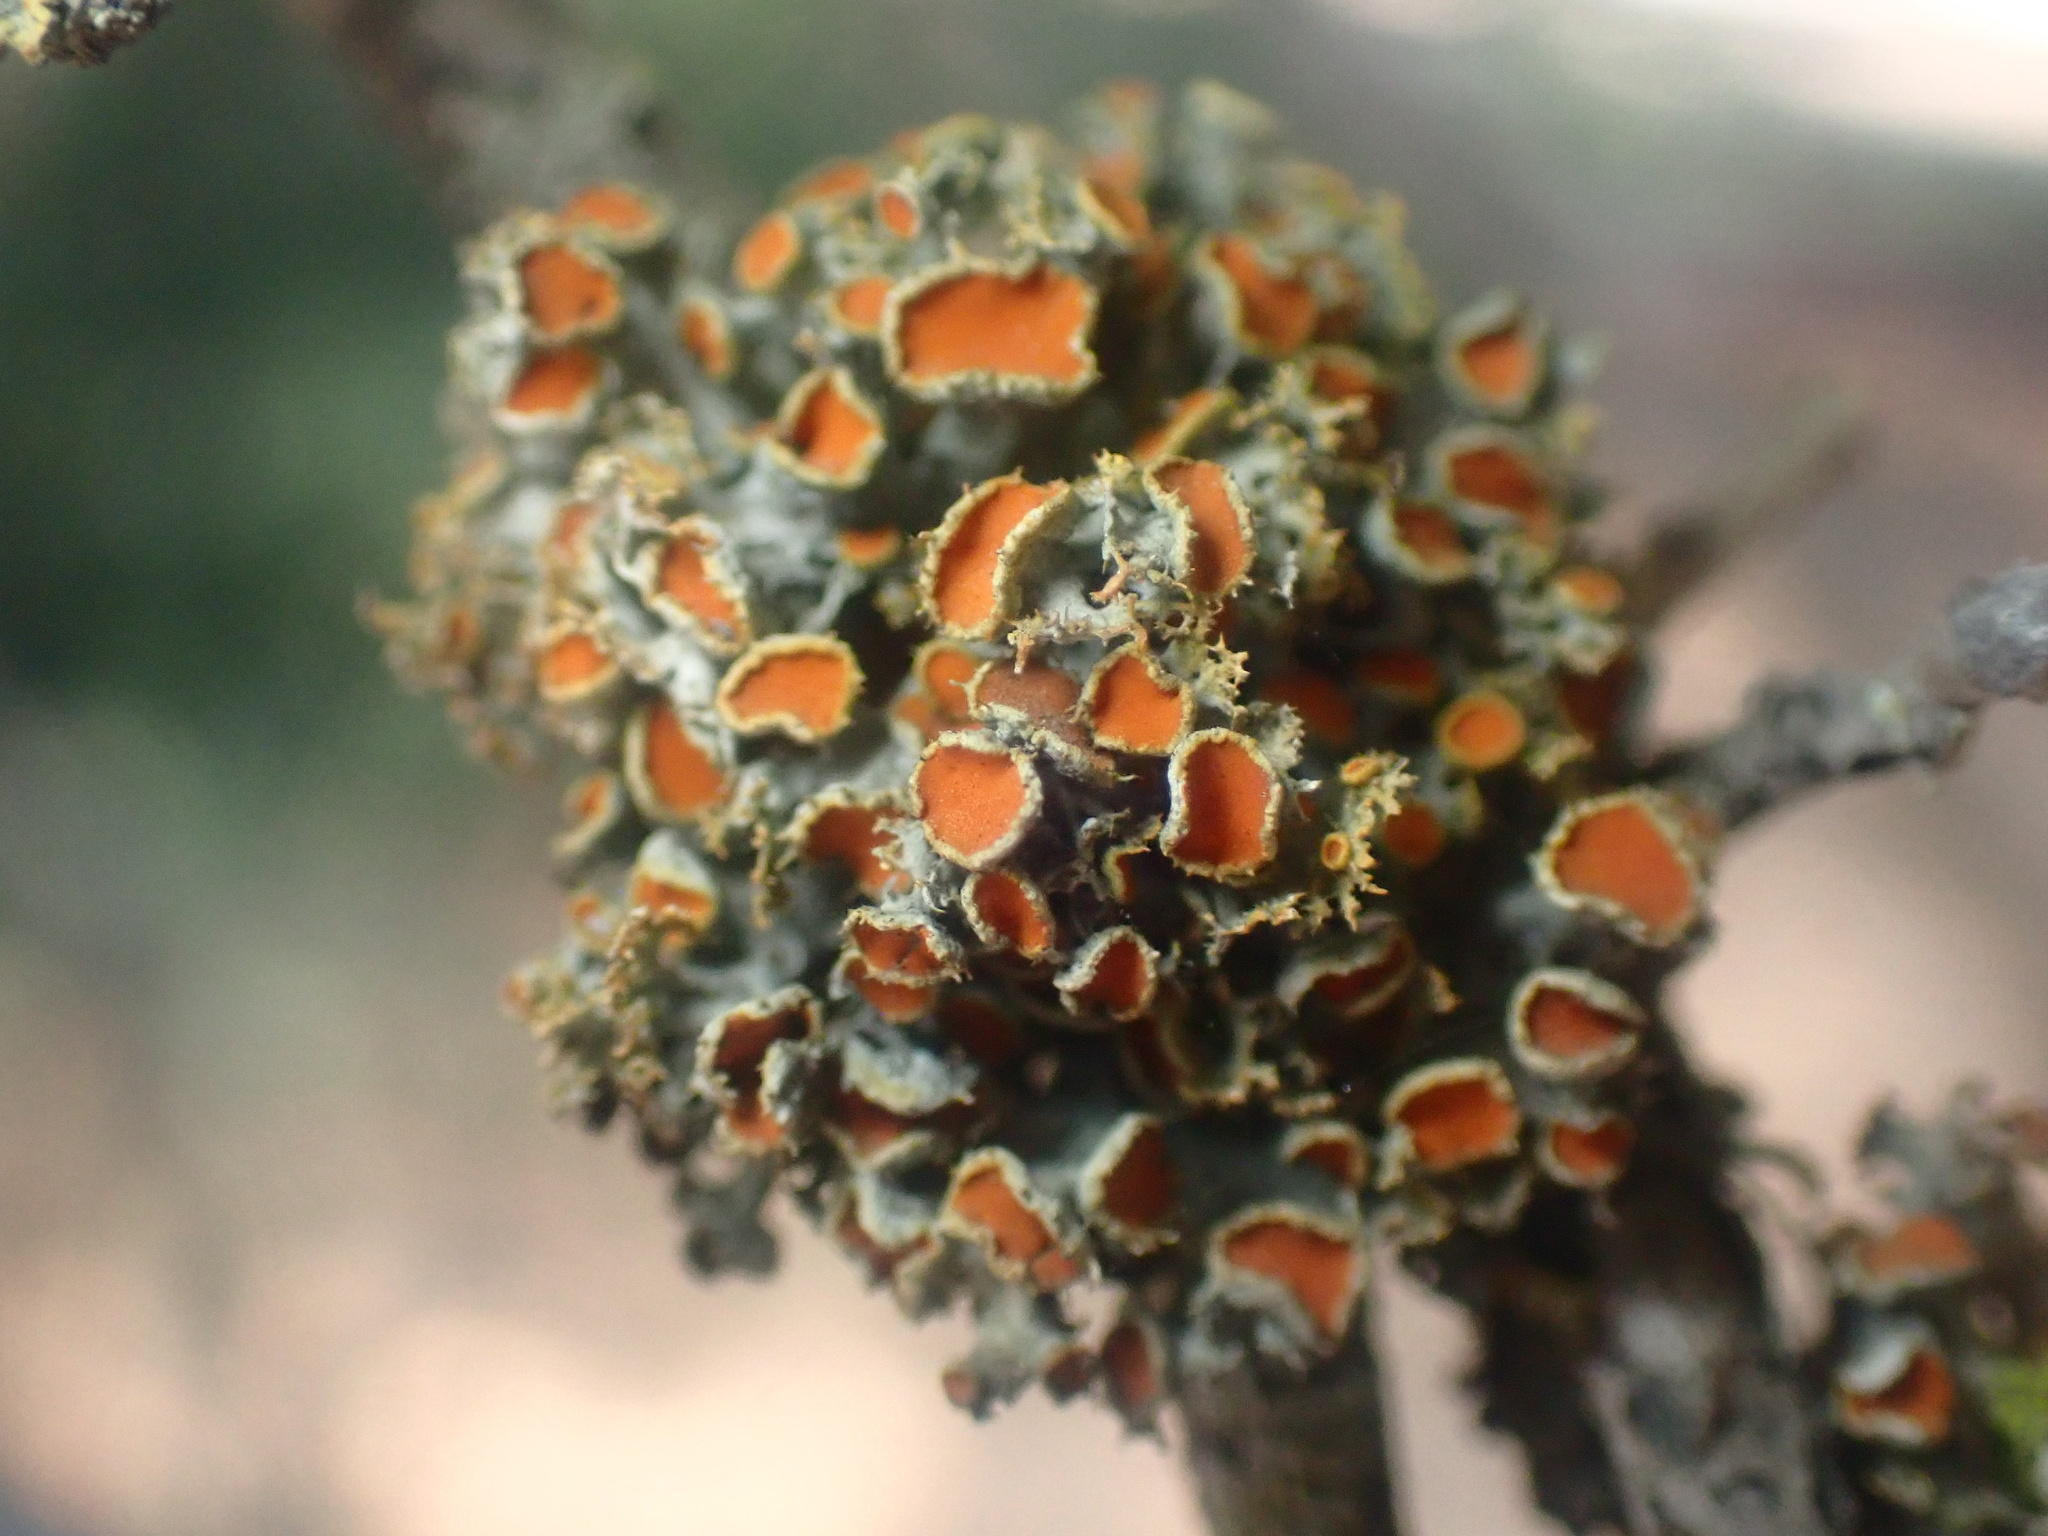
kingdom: Fungi
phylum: Ascomycota
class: Lecanoromycetes
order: Teloschistales
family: Teloschistaceae
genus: Niorma
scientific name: Niorma chrysophthalma
